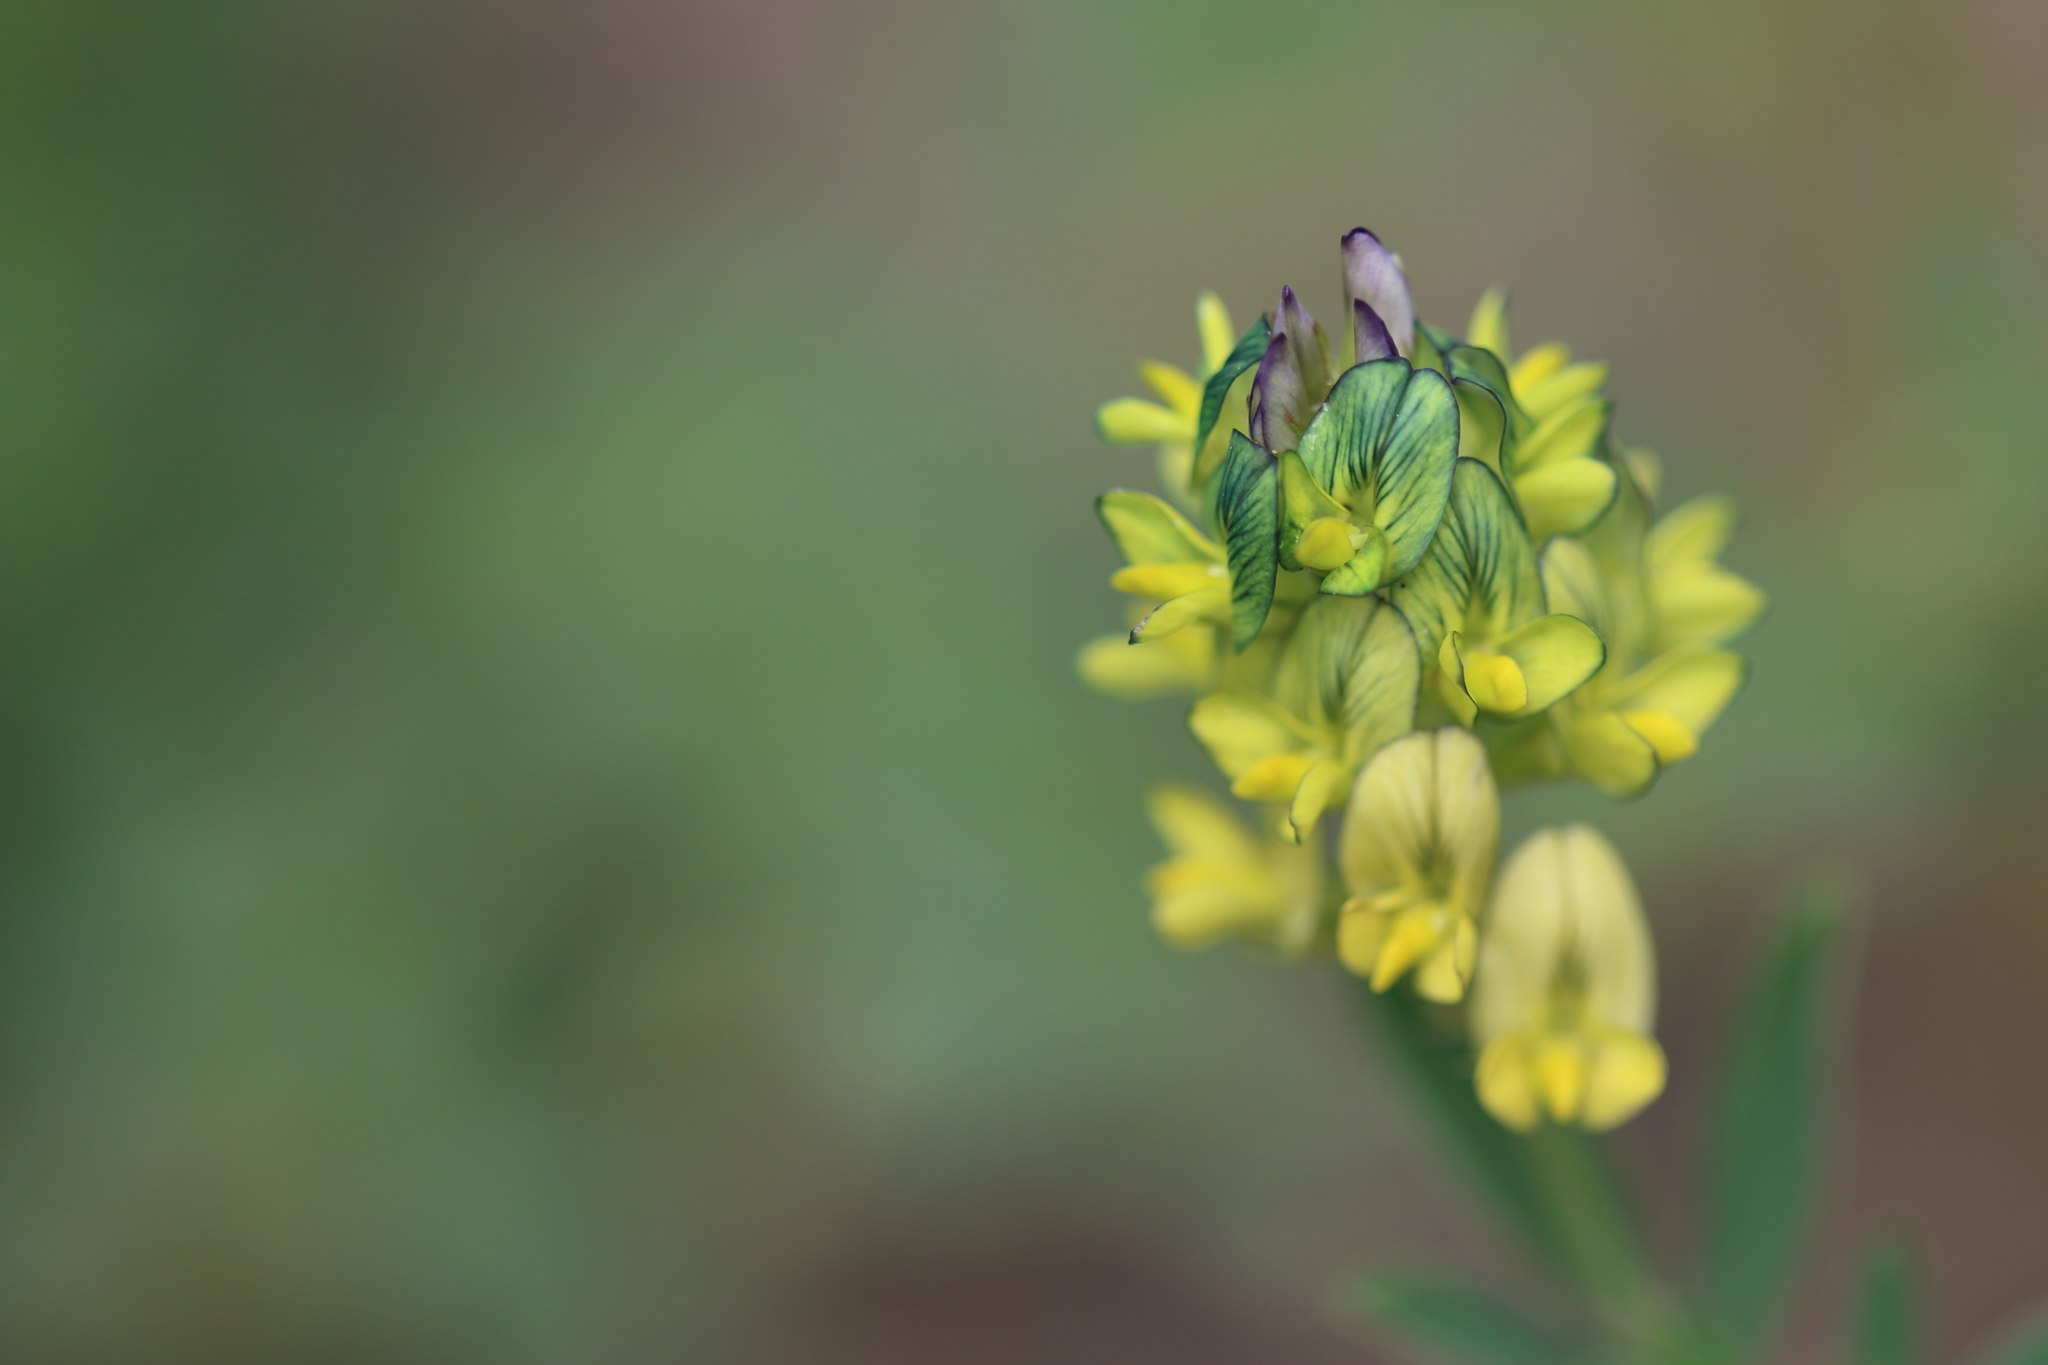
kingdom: Plantae
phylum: Tracheophyta
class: Magnoliopsida
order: Fabales
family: Fabaceae
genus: Medicago
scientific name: Medicago sativa
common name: Alfalfa
